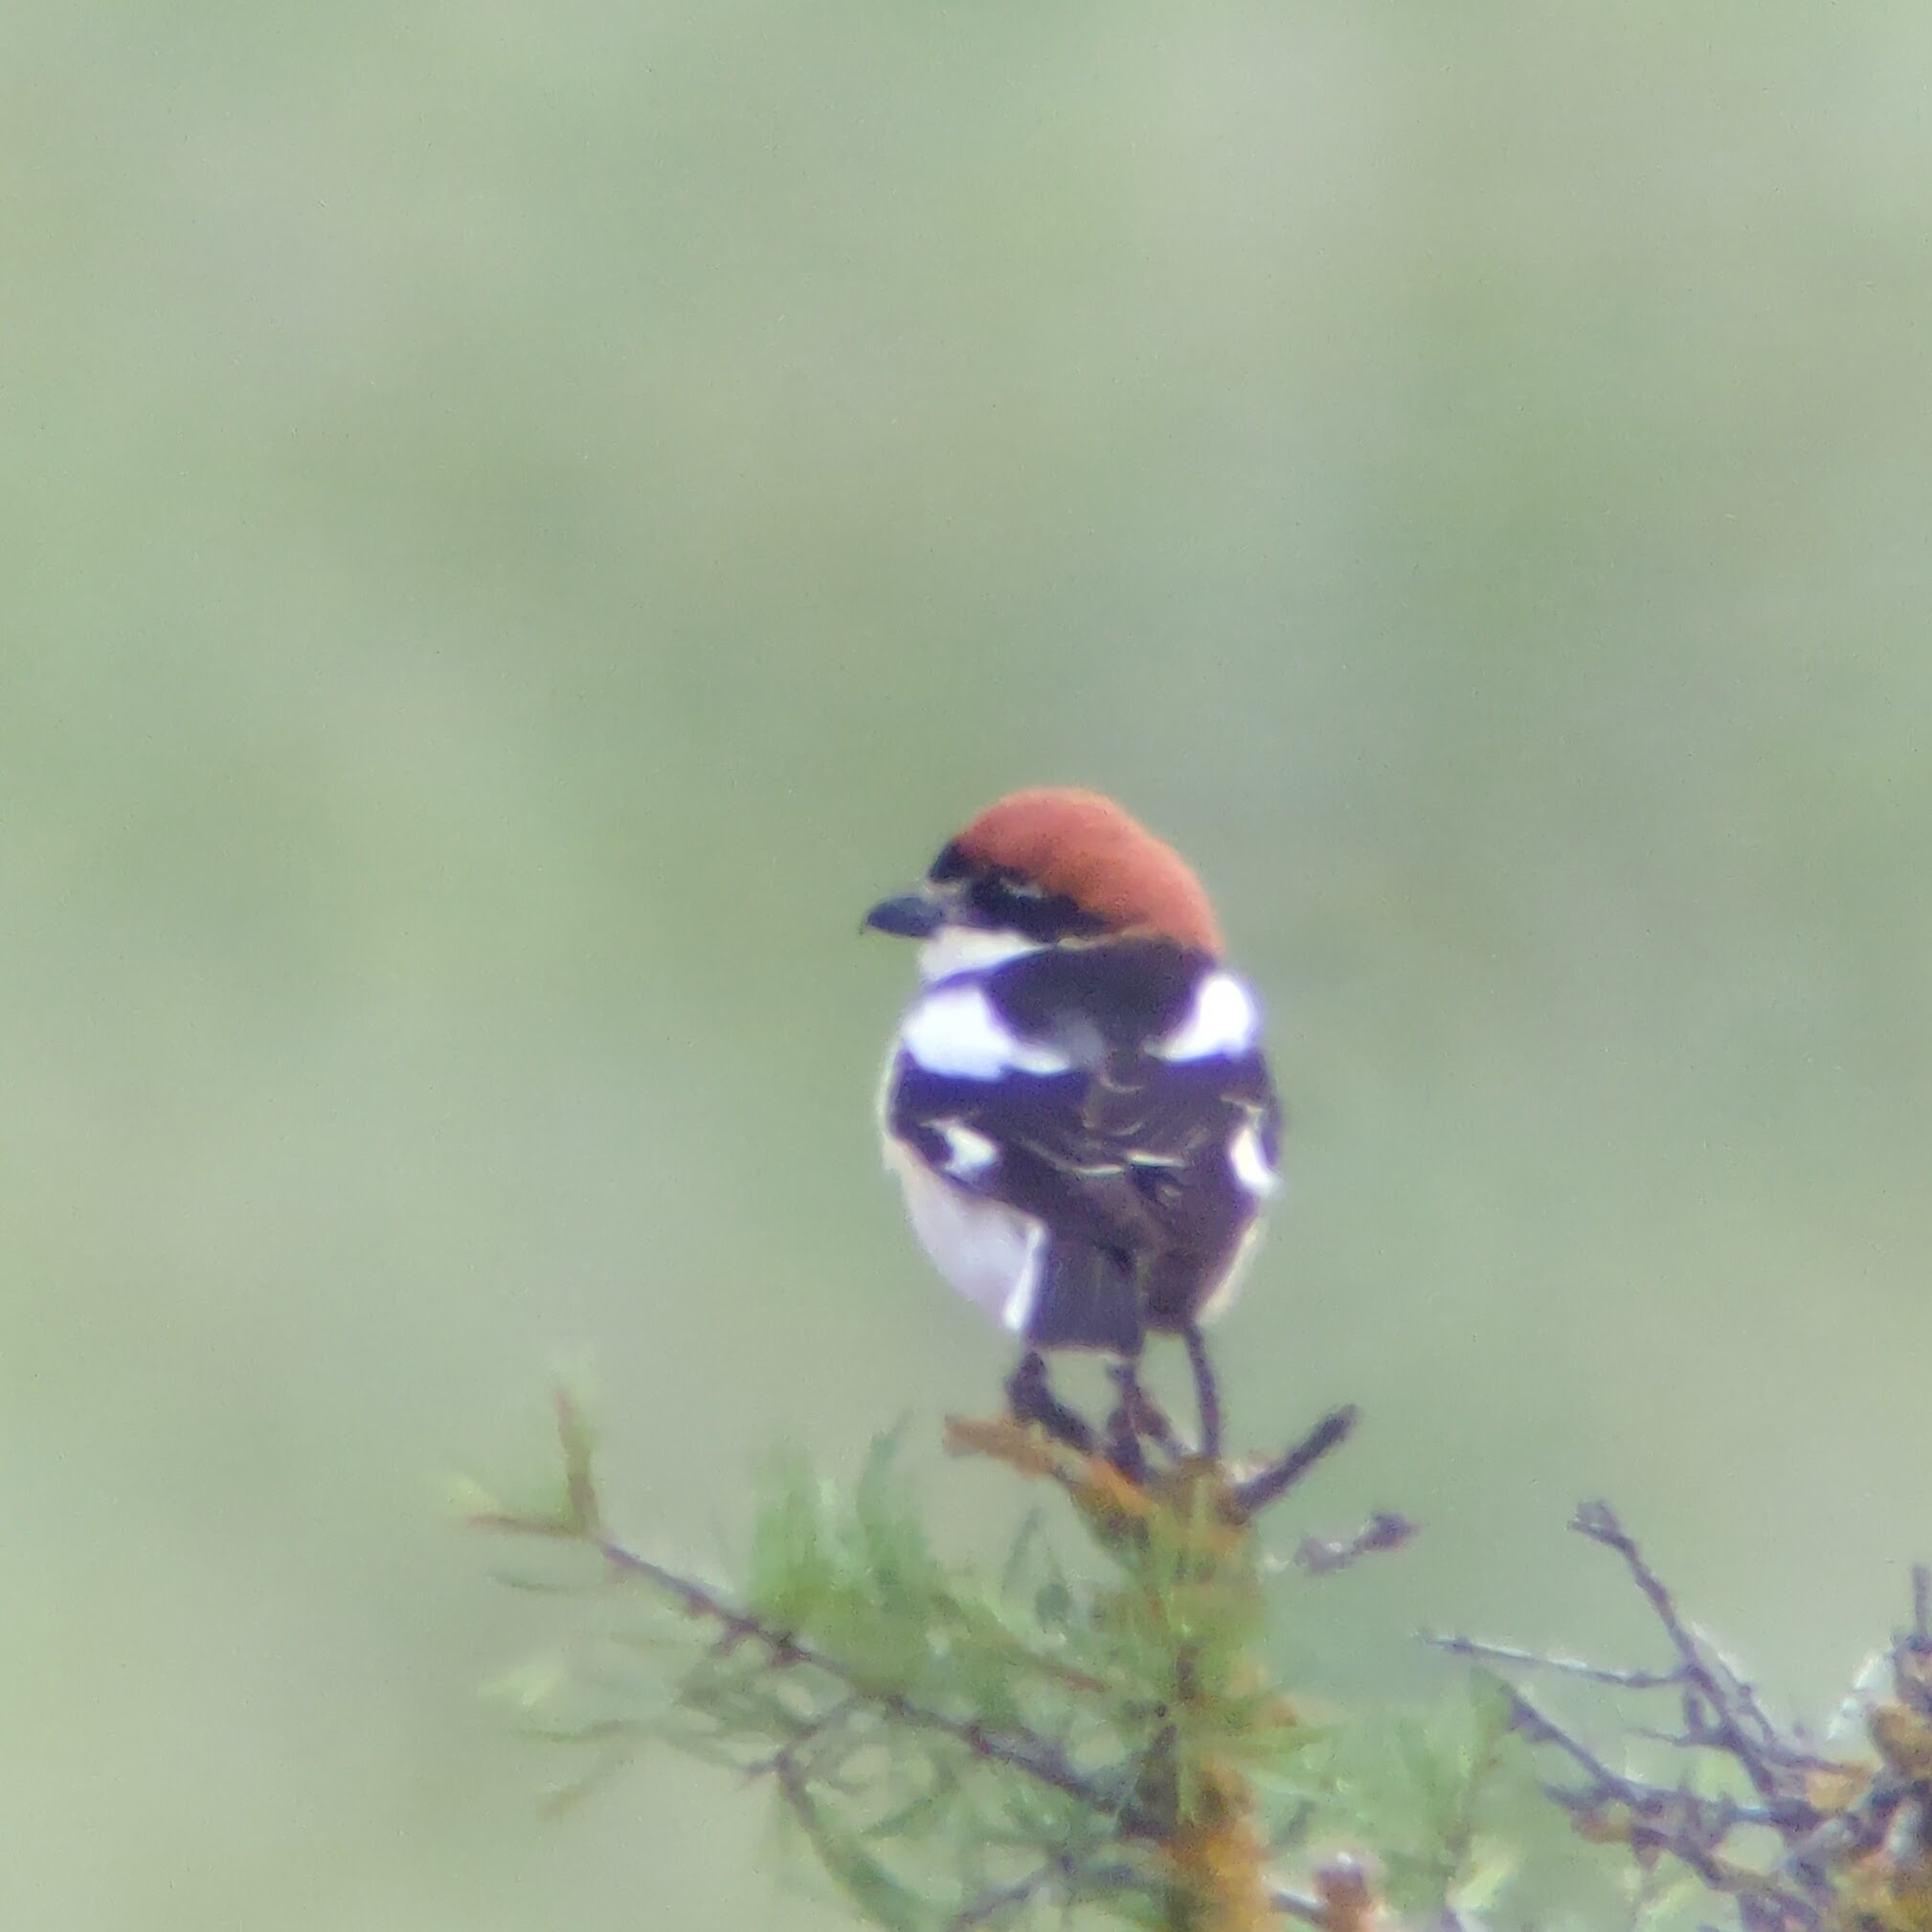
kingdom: Animalia
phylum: Chordata
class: Aves
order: Passeriformes
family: Laniidae
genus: Lanius
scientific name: Lanius senator
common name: Woodchat shrike
